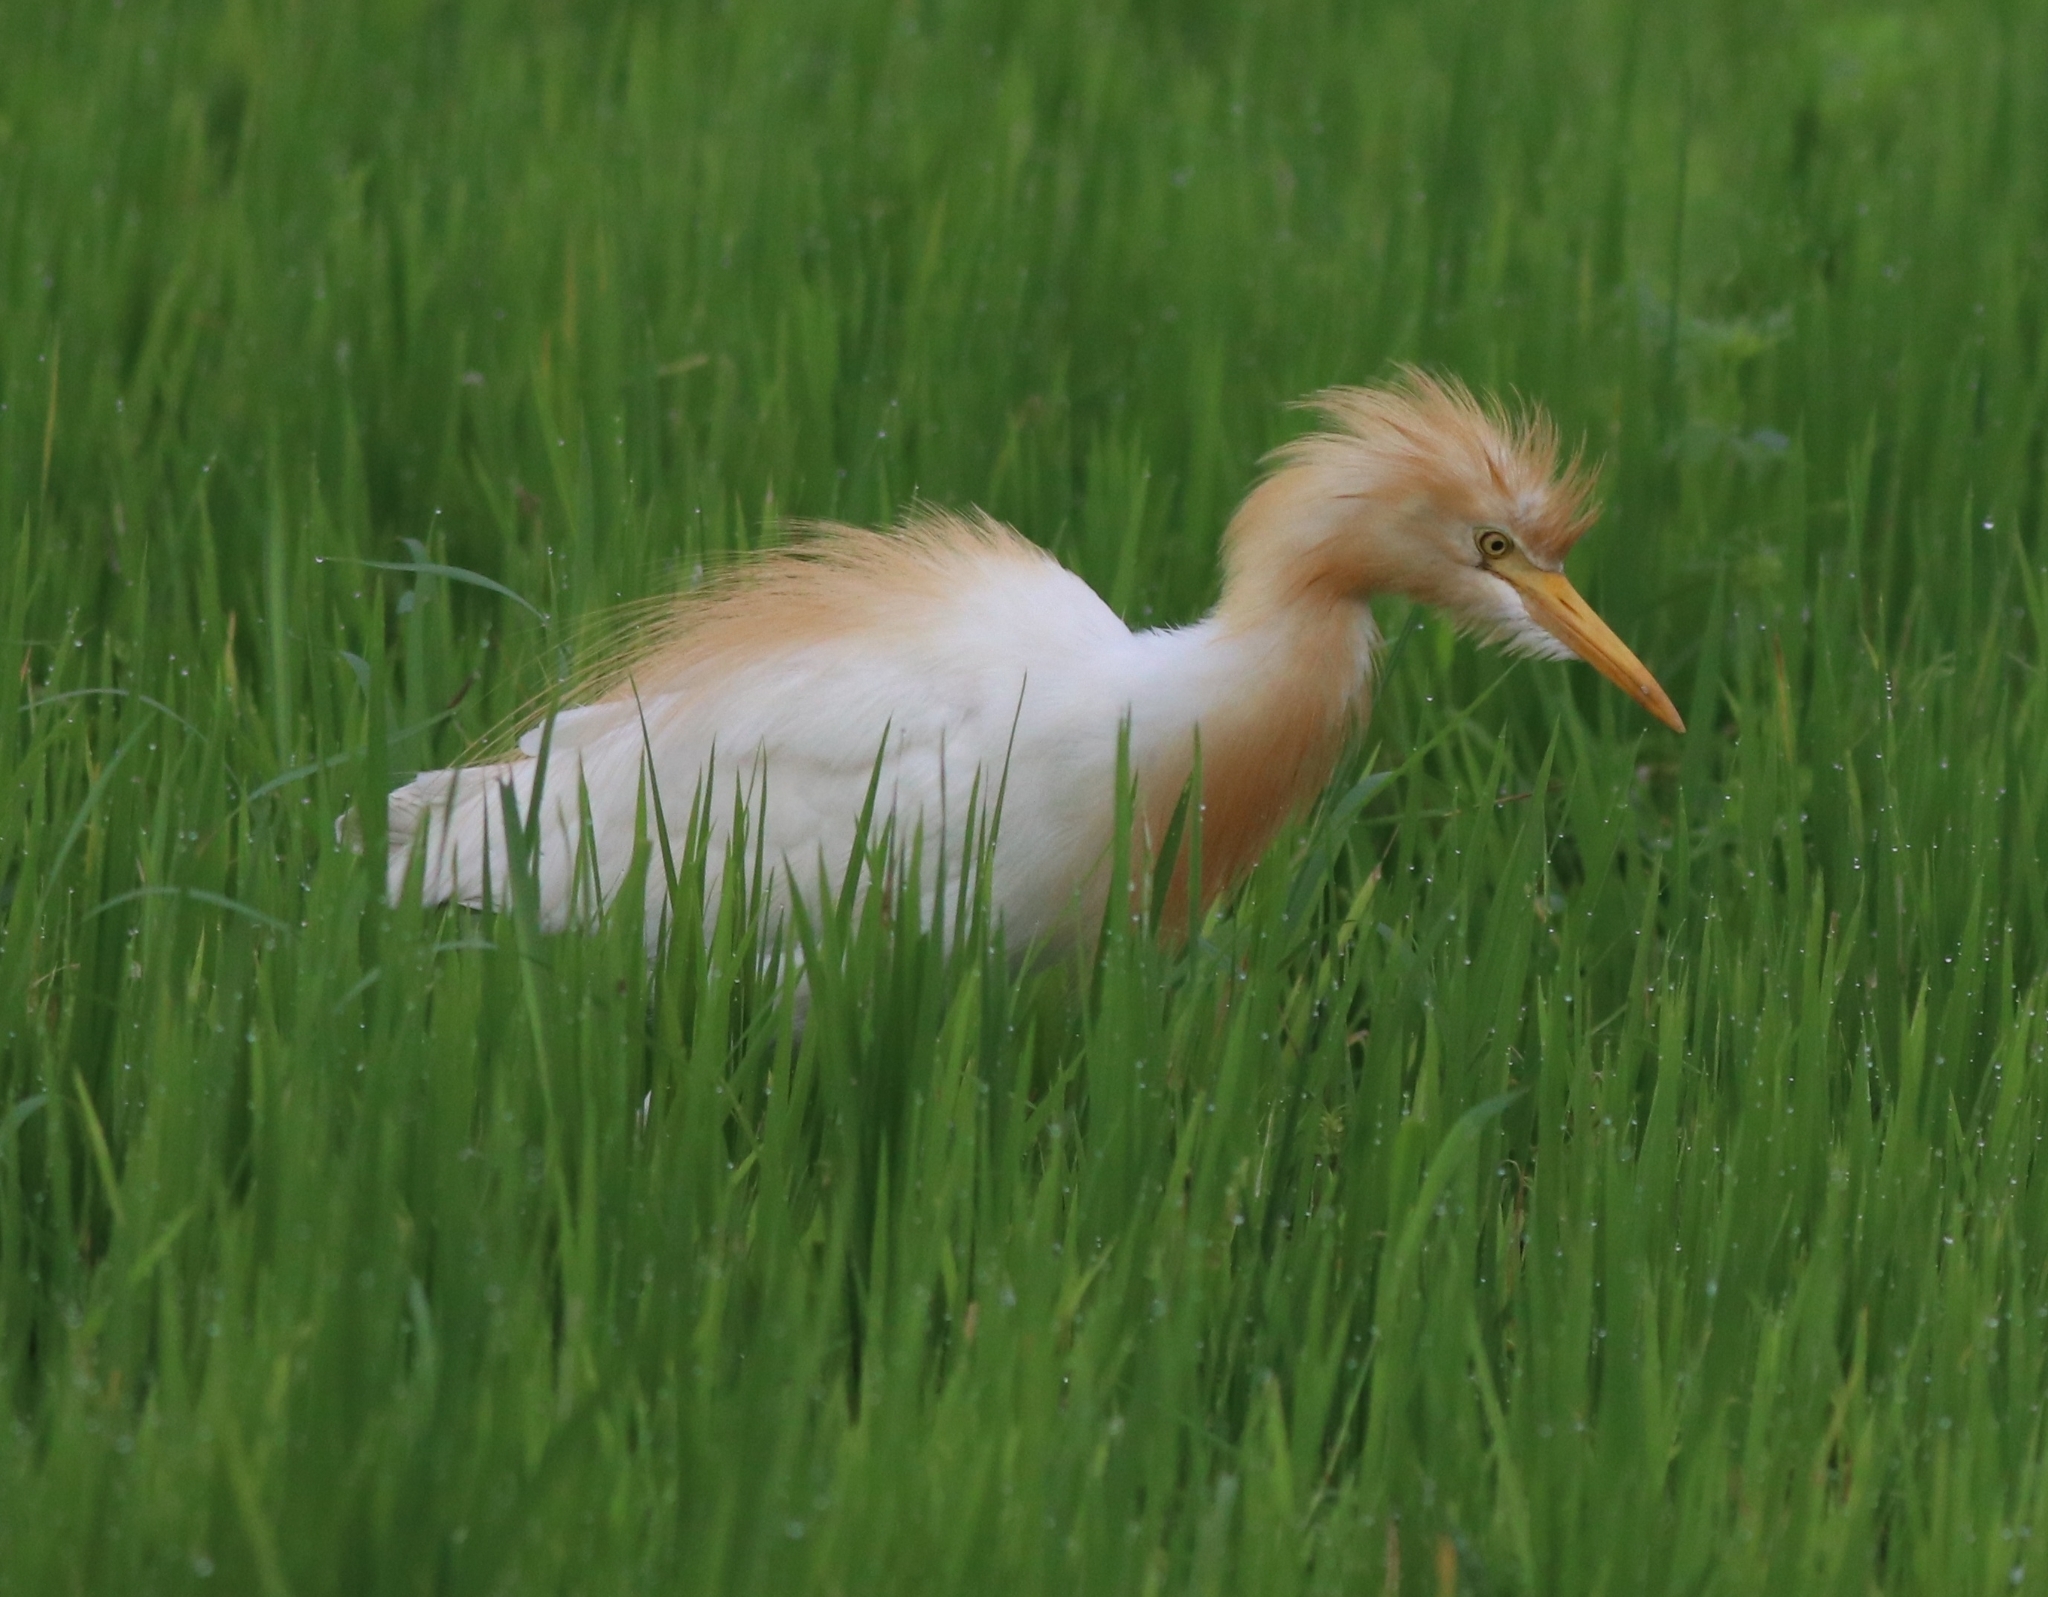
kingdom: Animalia
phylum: Chordata
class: Aves
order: Pelecaniformes
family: Ardeidae
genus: Bubulcus
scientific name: Bubulcus coromandus
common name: Eastern cattle egret
